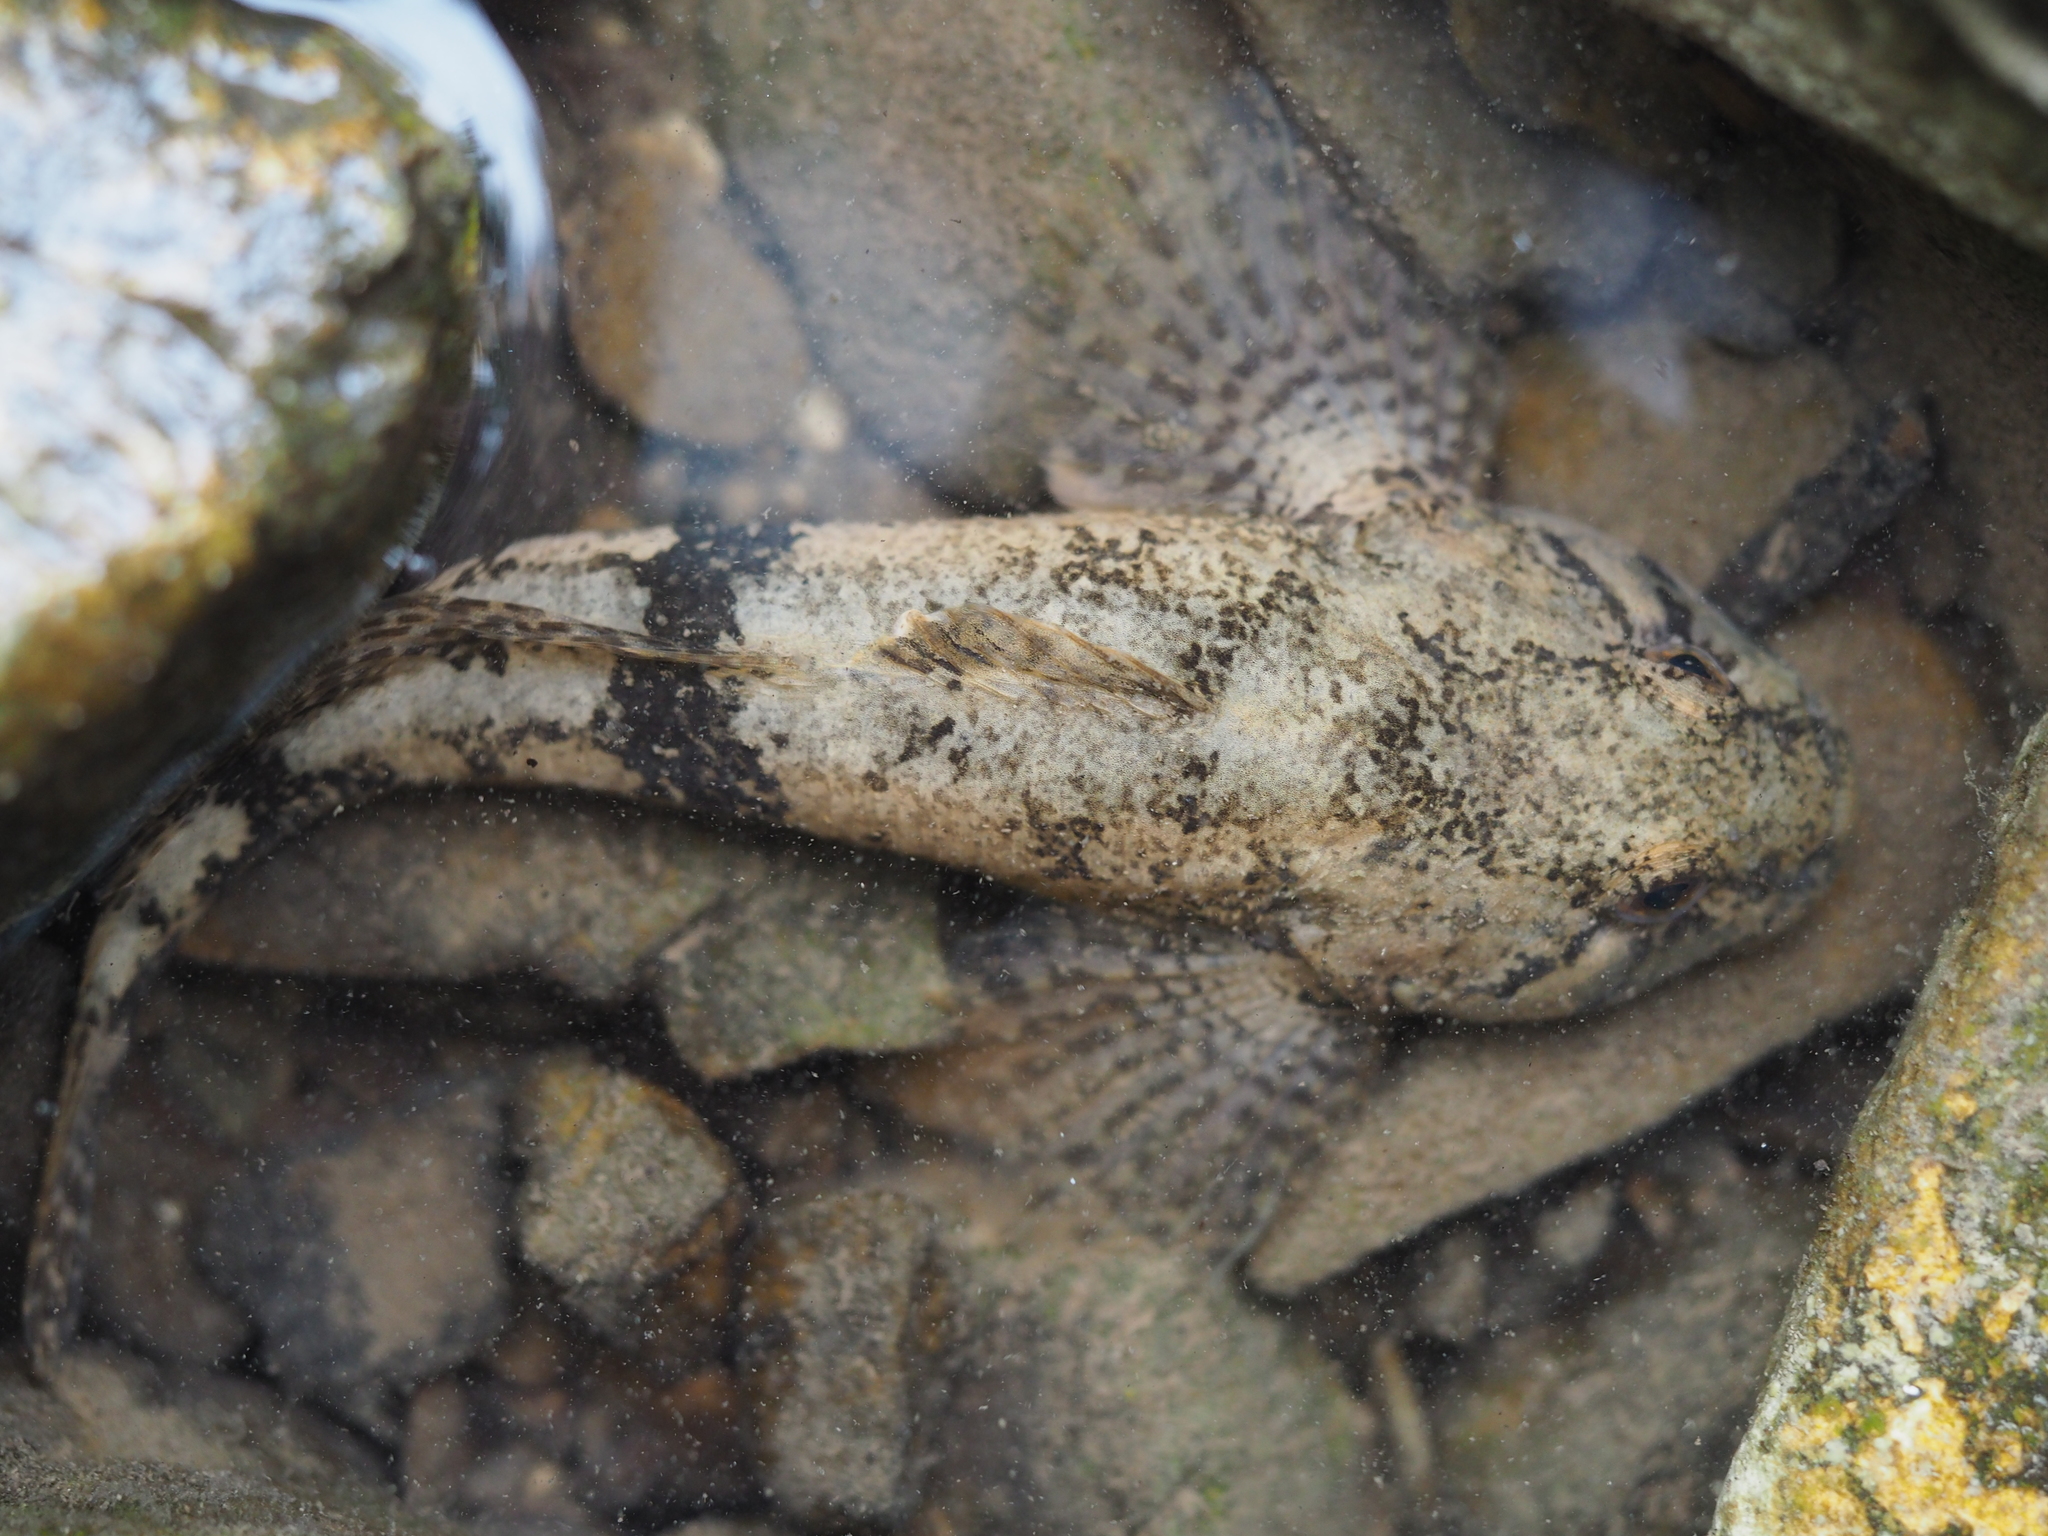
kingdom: Animalia
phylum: Chordata
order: Scorpaeniformes
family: Cottidae
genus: Cottus
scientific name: Cottus gobio
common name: Bullhead
